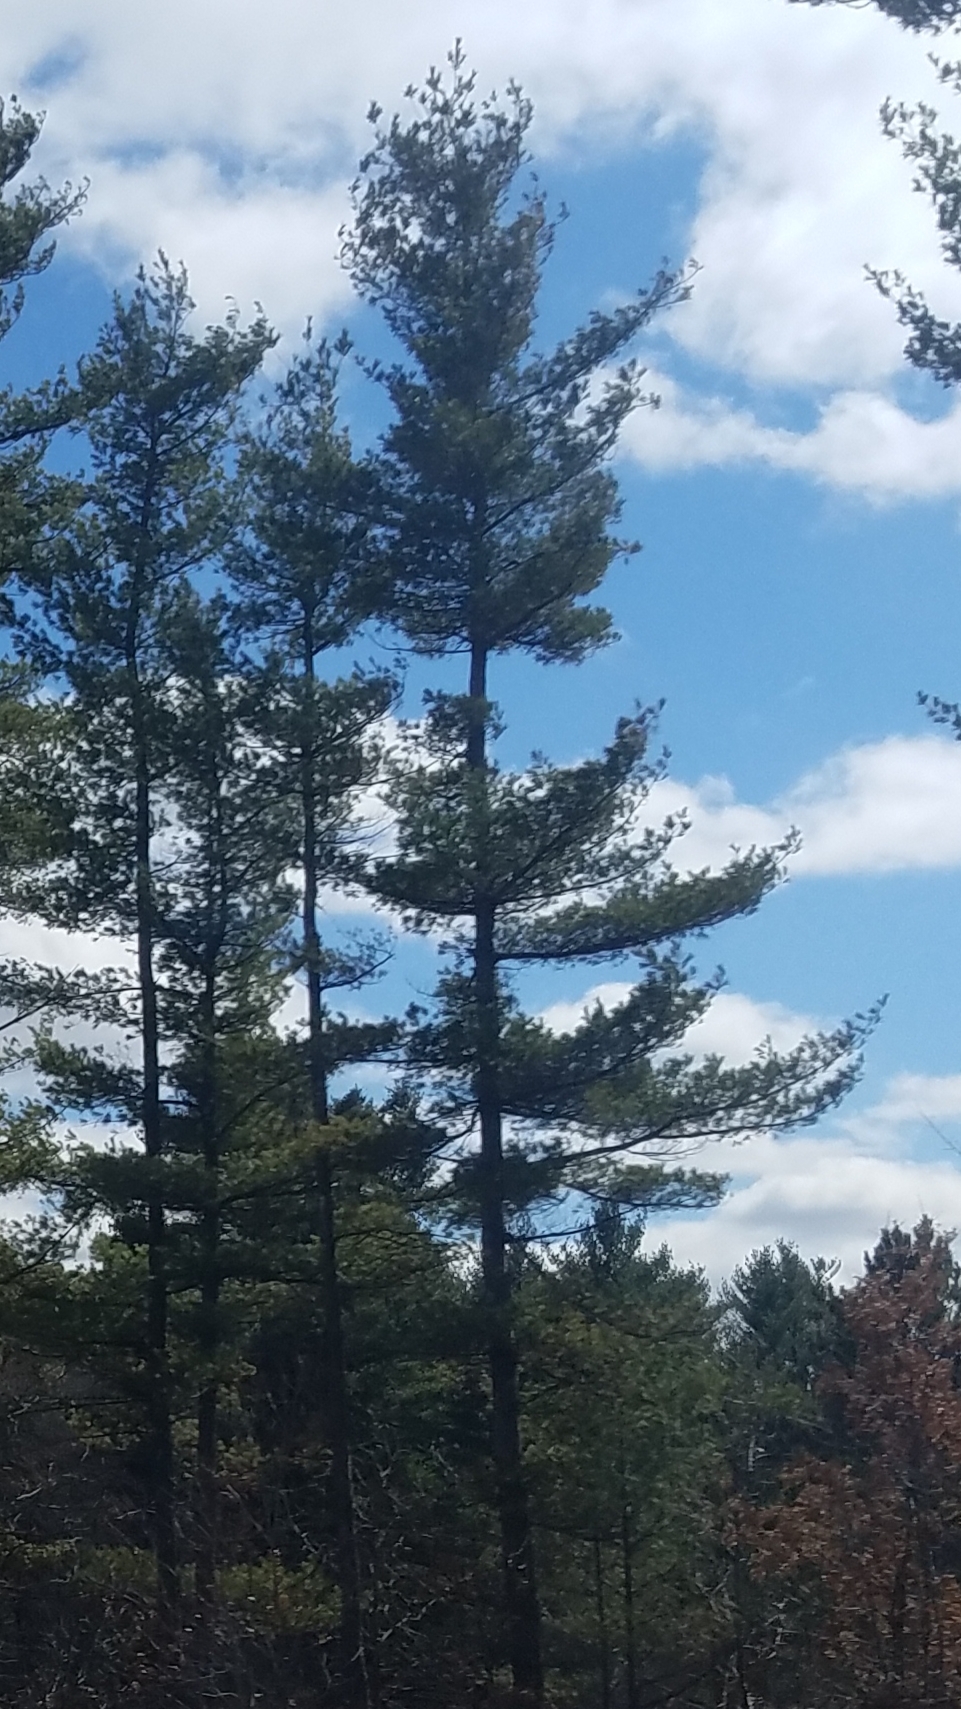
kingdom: Plantae
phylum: Tracheophyta
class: Pinopsida
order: Pinales
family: Pinaceae
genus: Pinus
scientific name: Pinus strobus
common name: Weymouth pine
